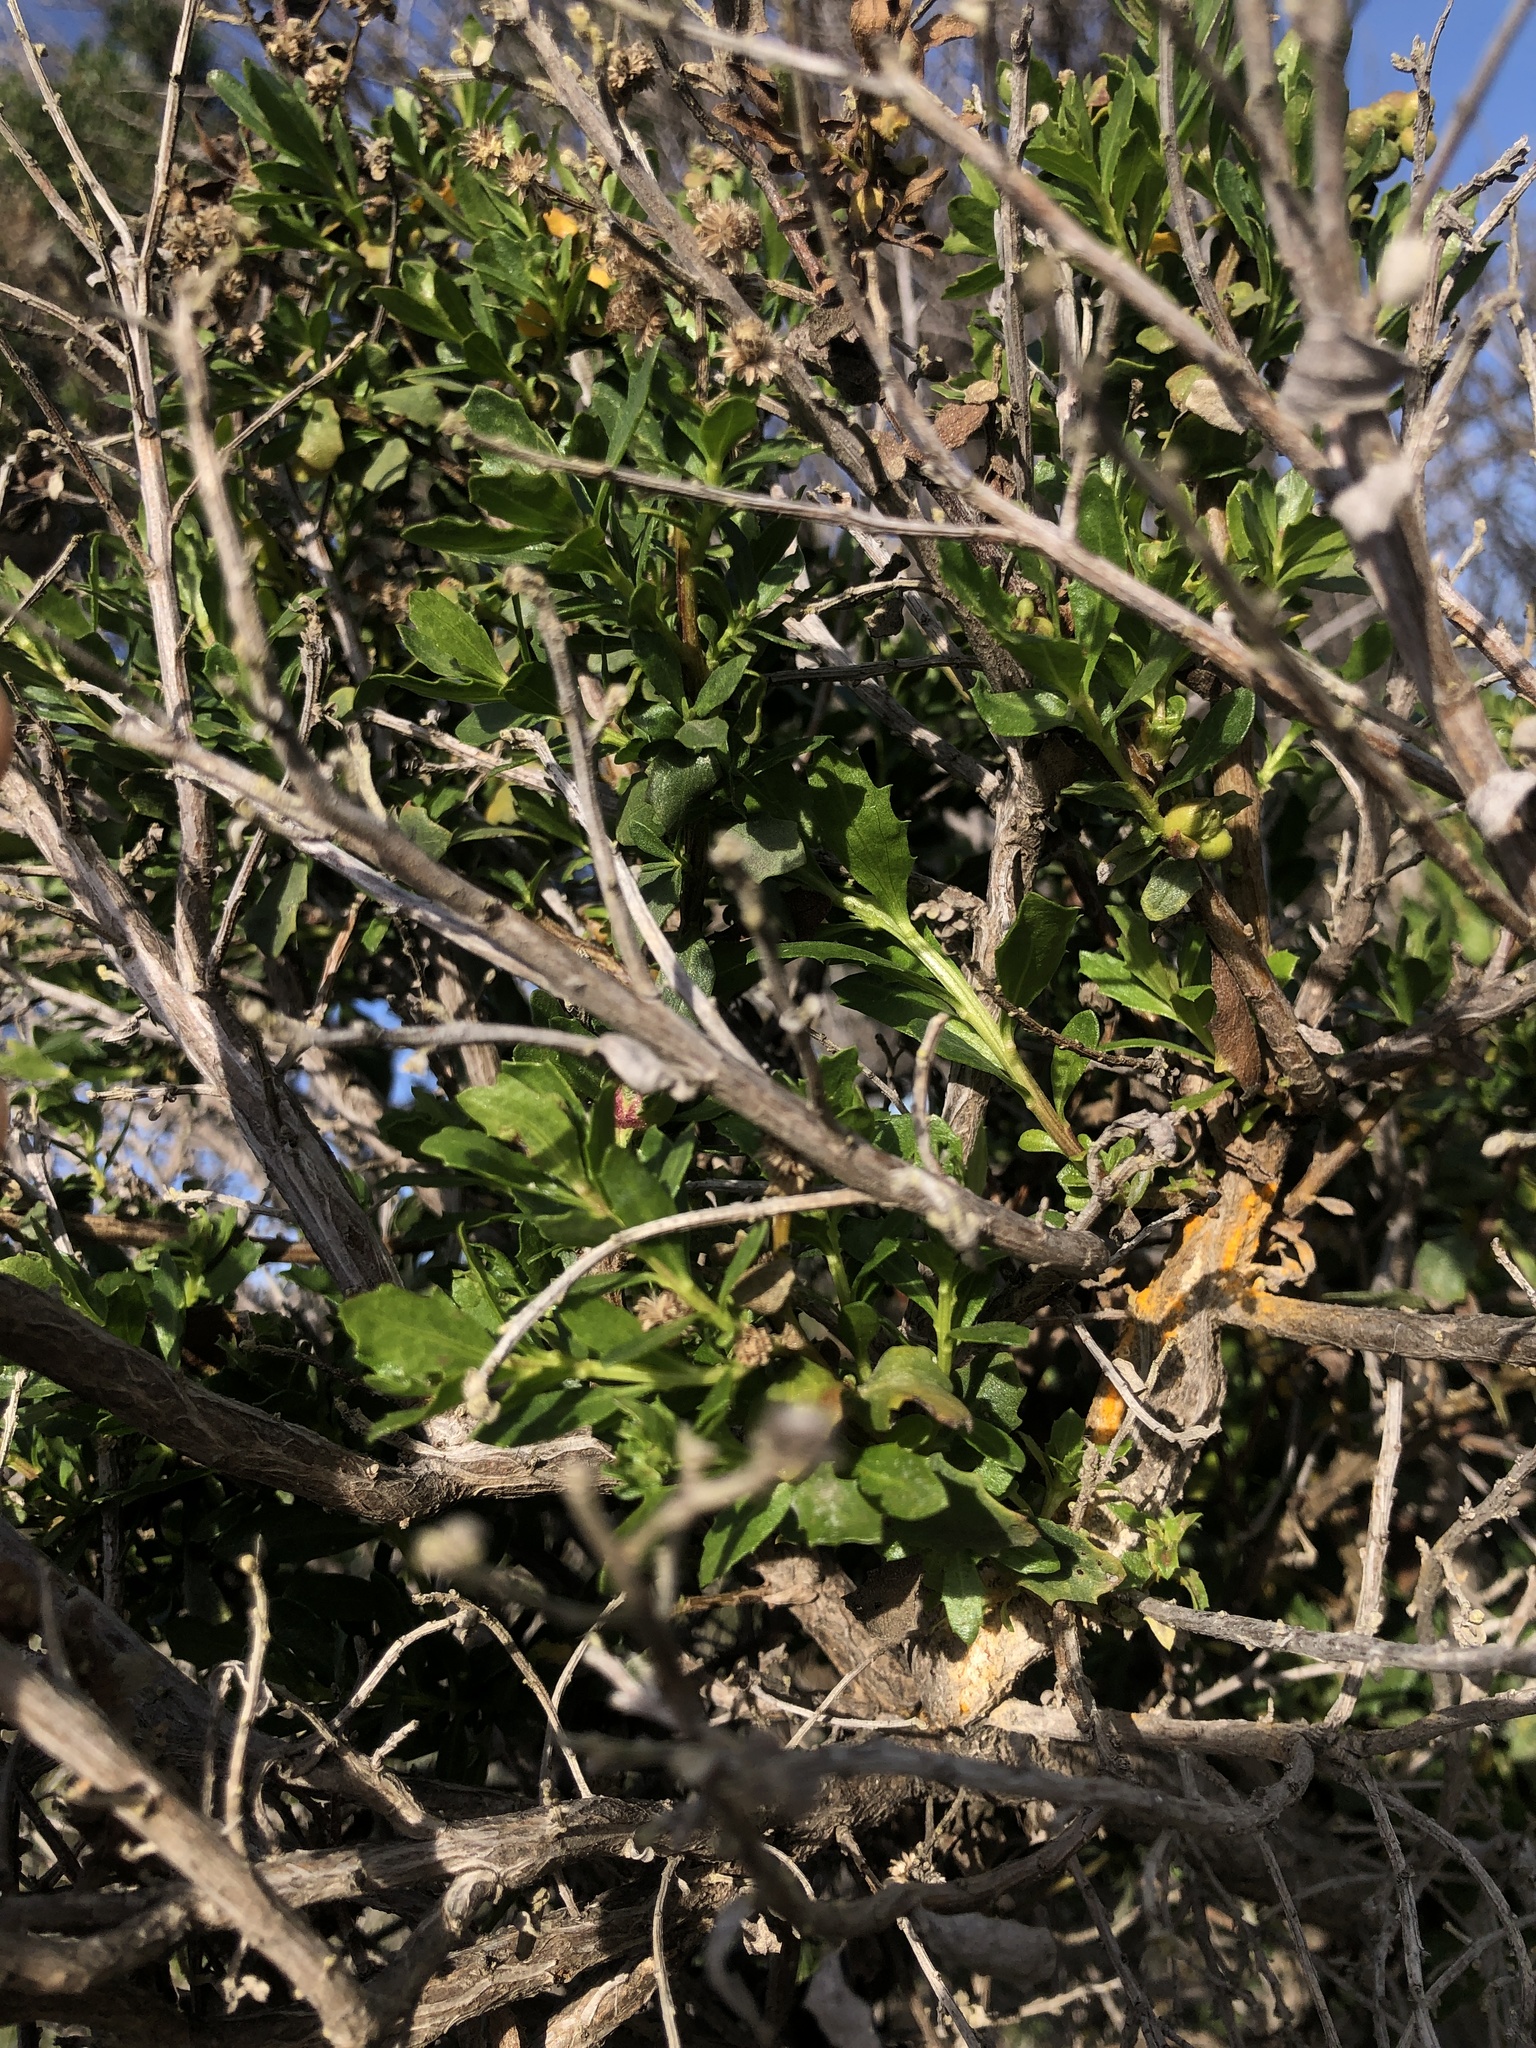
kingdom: Fungi
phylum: Basidiomycota
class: Pucciniomycetes
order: Pucciniales
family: Pucciniaceae
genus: Eriosporangium
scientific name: Eriosporangium evadens
